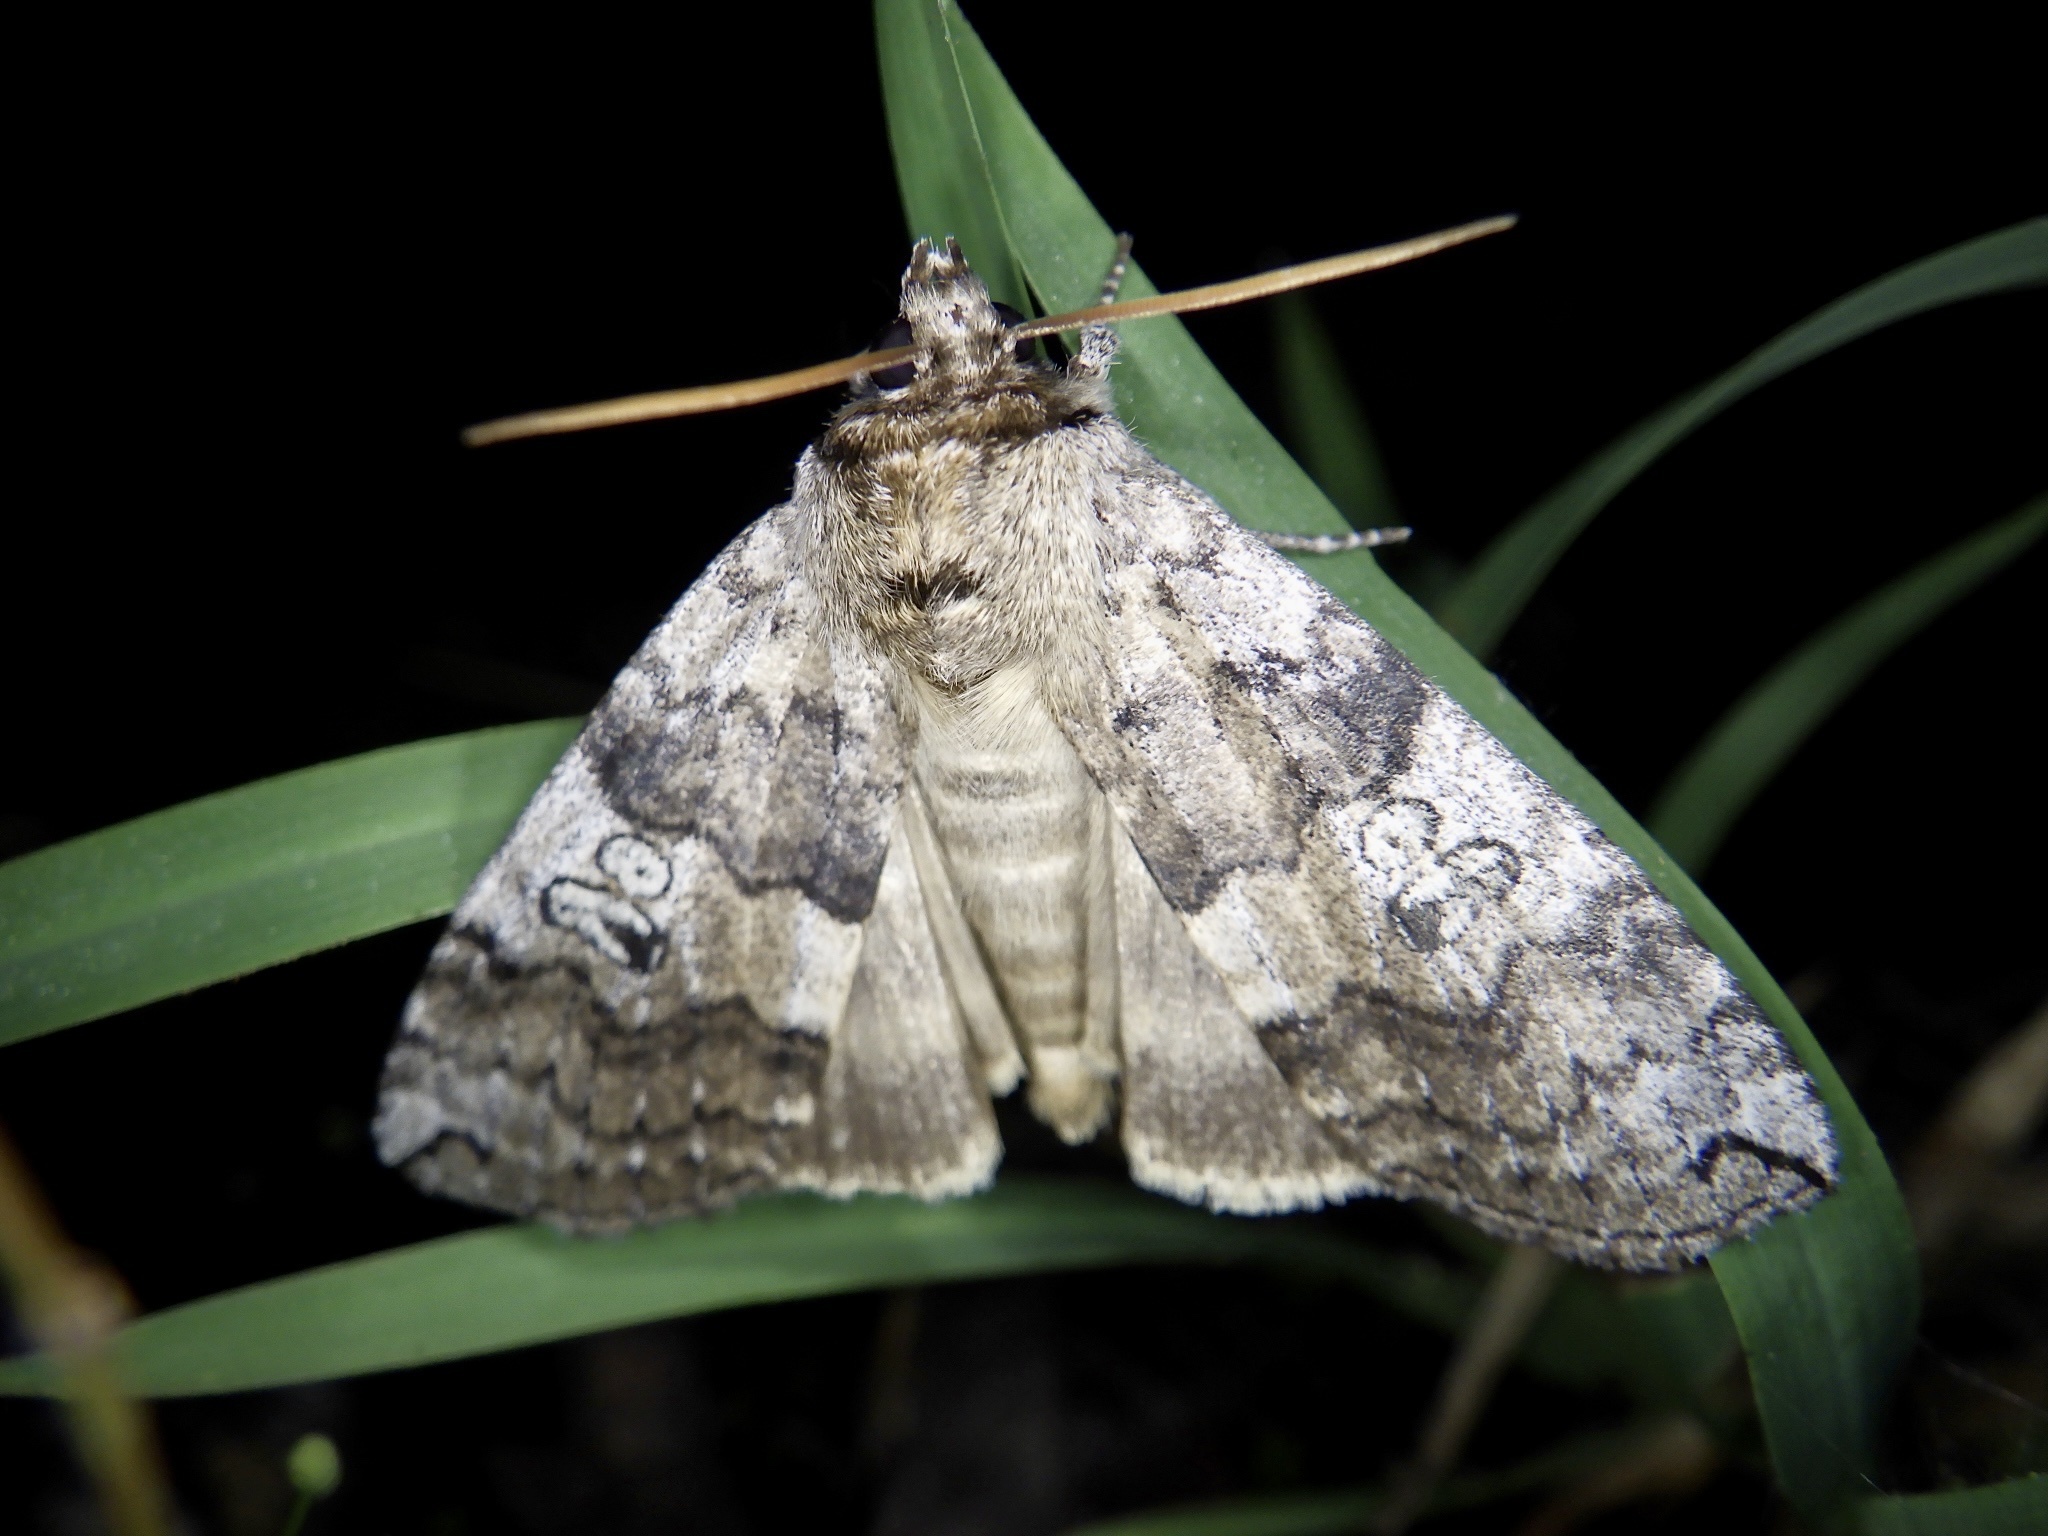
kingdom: Animalia
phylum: Arthropoda
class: Insecta
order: Lepidoptera
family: Drepanidae
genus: Tethea
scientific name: Tethea intensa
